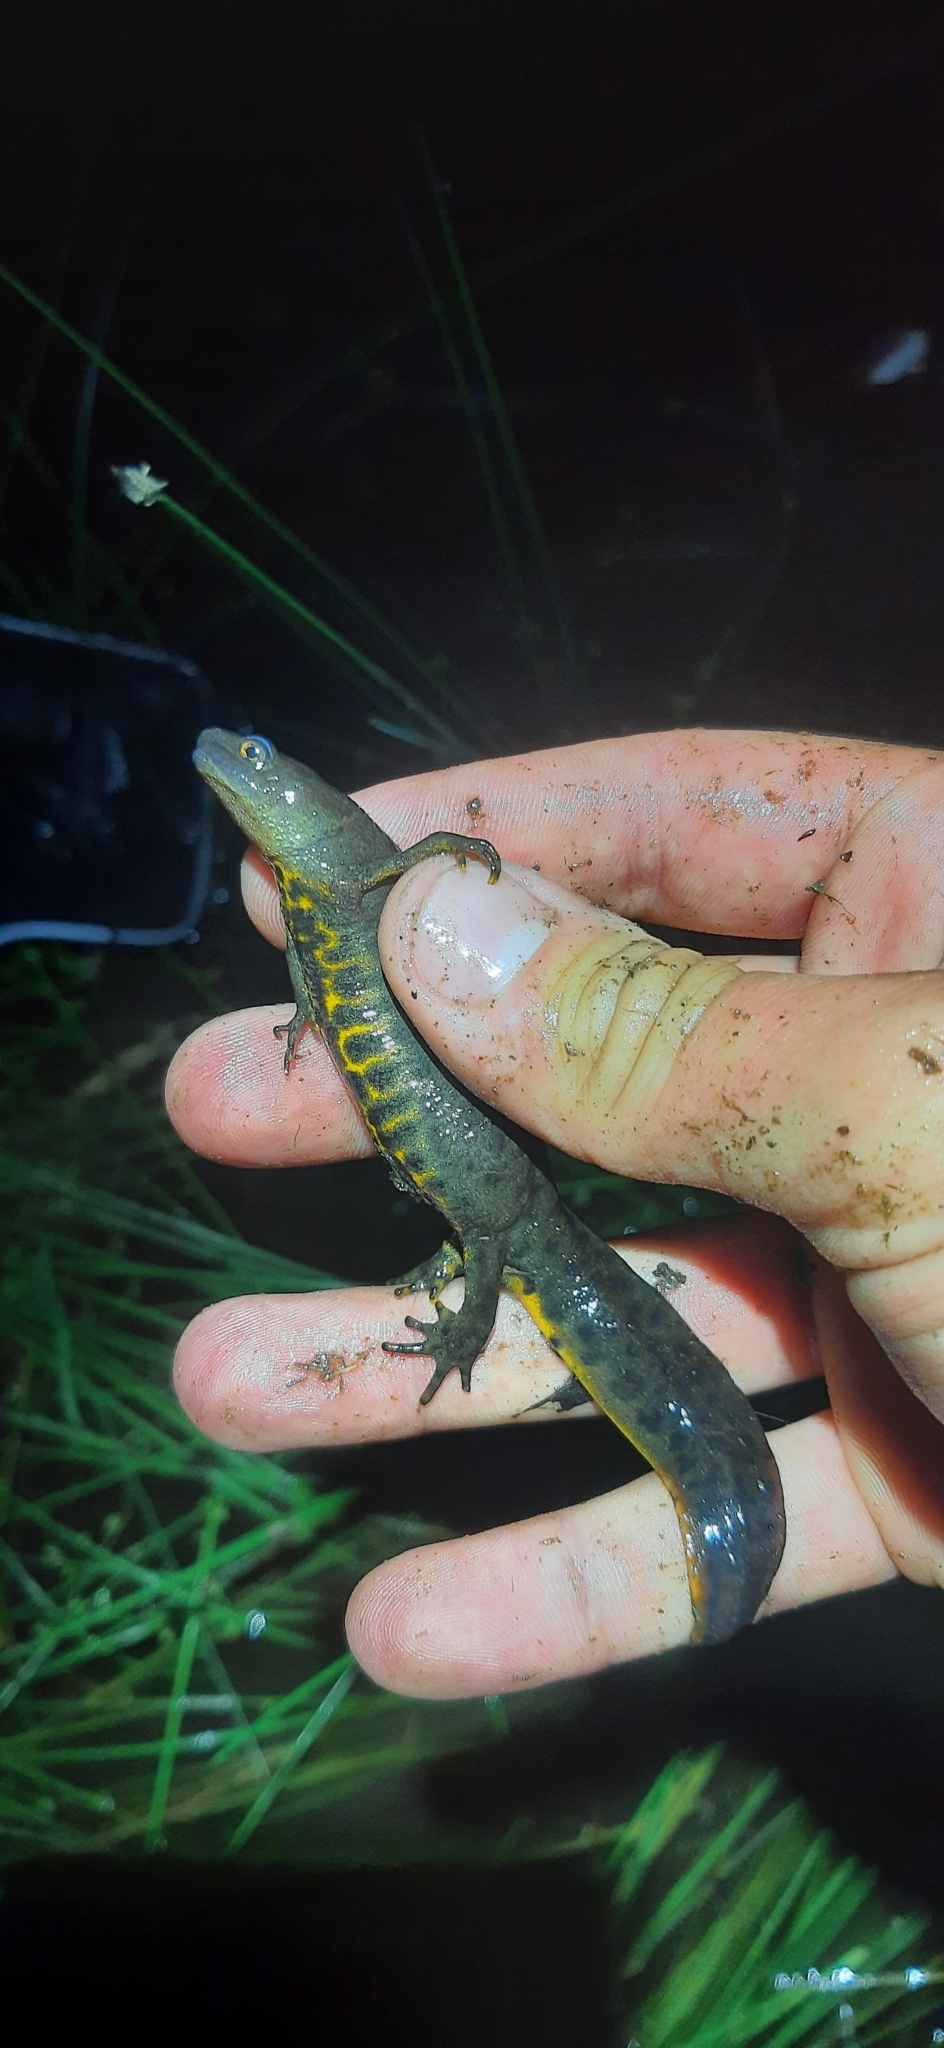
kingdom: Animalia
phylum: Chordata
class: Amphibia
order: Caudata
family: Salamandridae
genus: Triturus
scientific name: Triturus cristatus
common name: Crested newt
